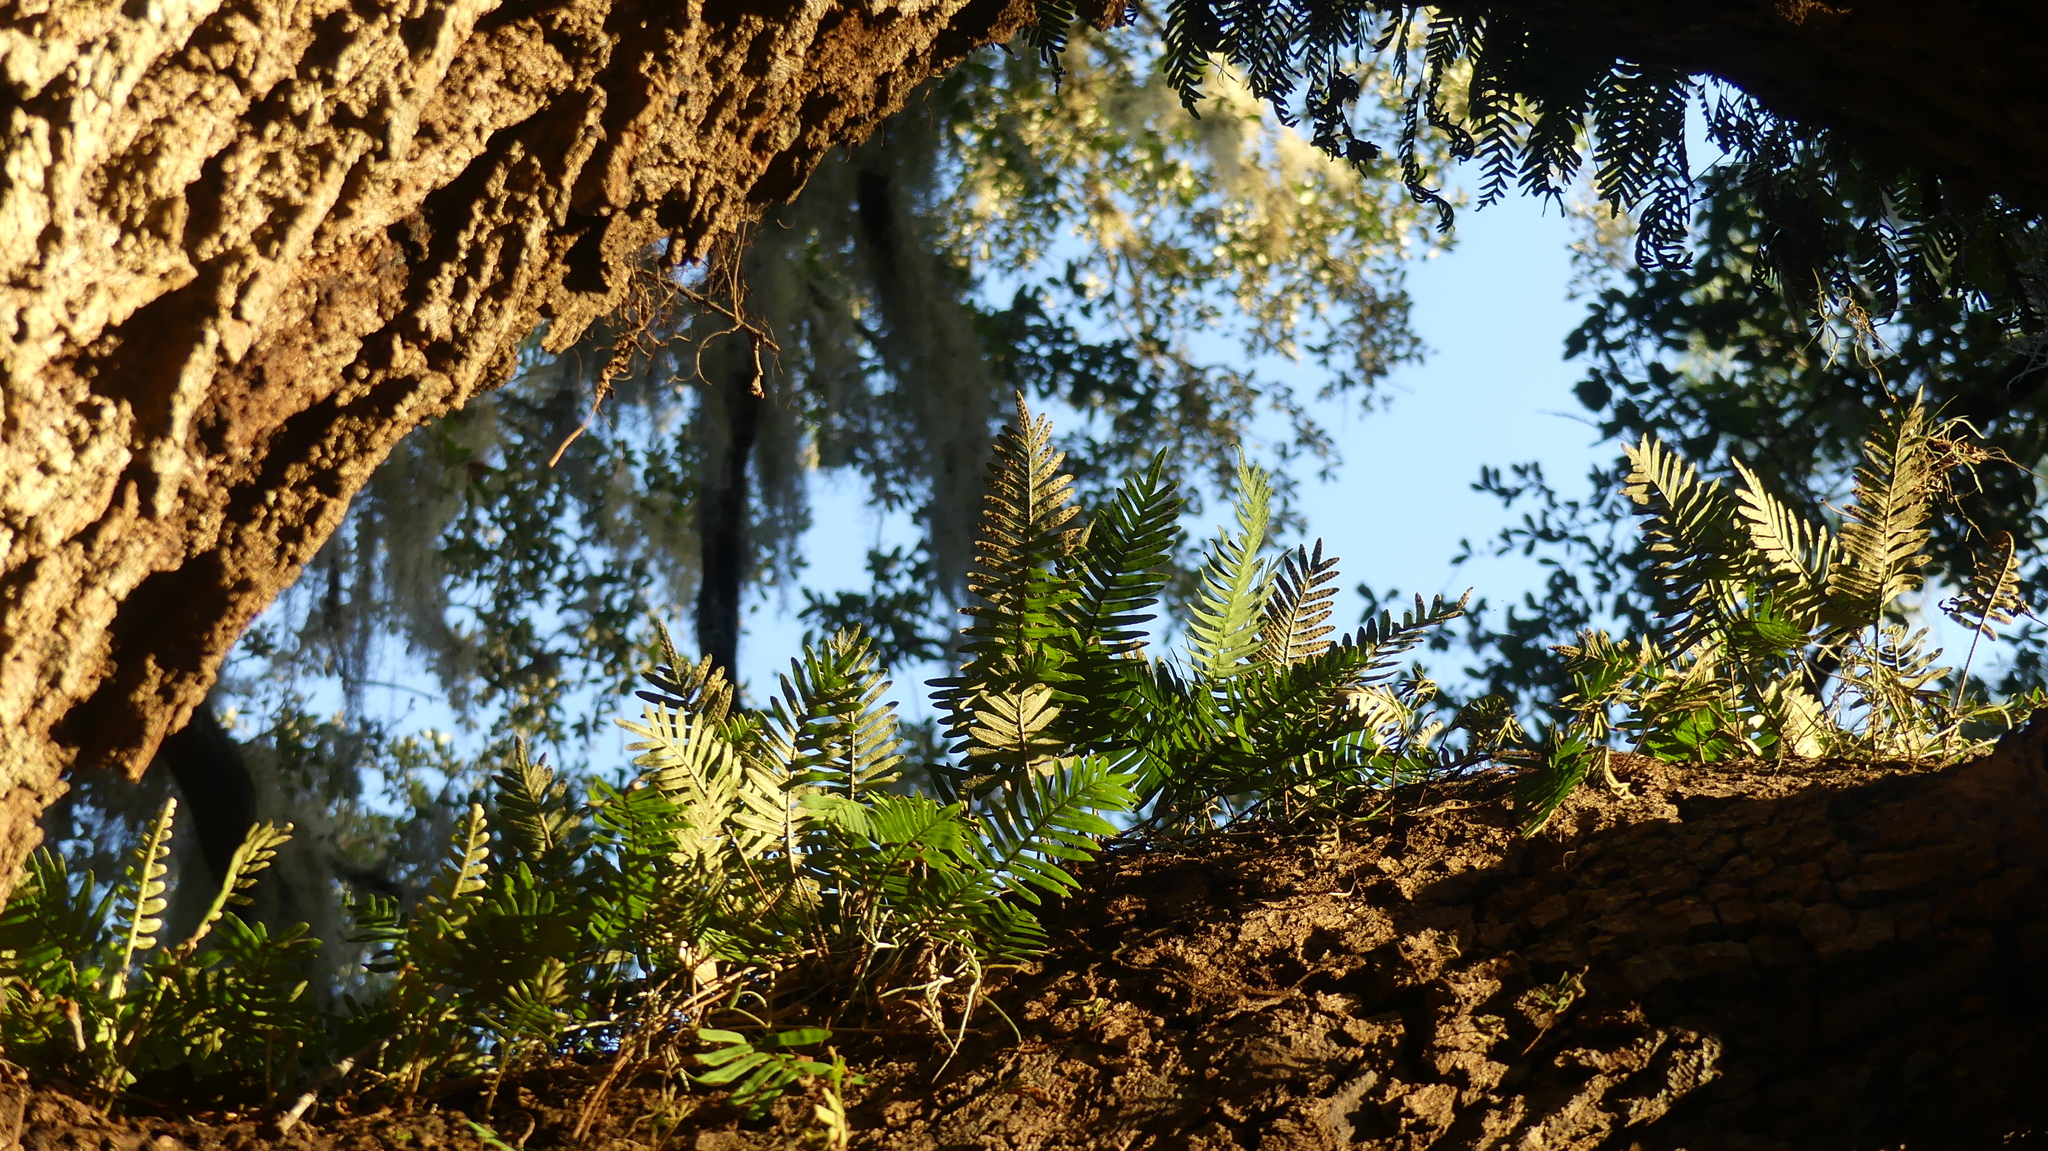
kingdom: Plantae
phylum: Tracheophyta
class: Polypodiopsida
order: Polypodiales
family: Polypodiaceae
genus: Pleopeltis
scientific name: Pleopeltis michauxiana
